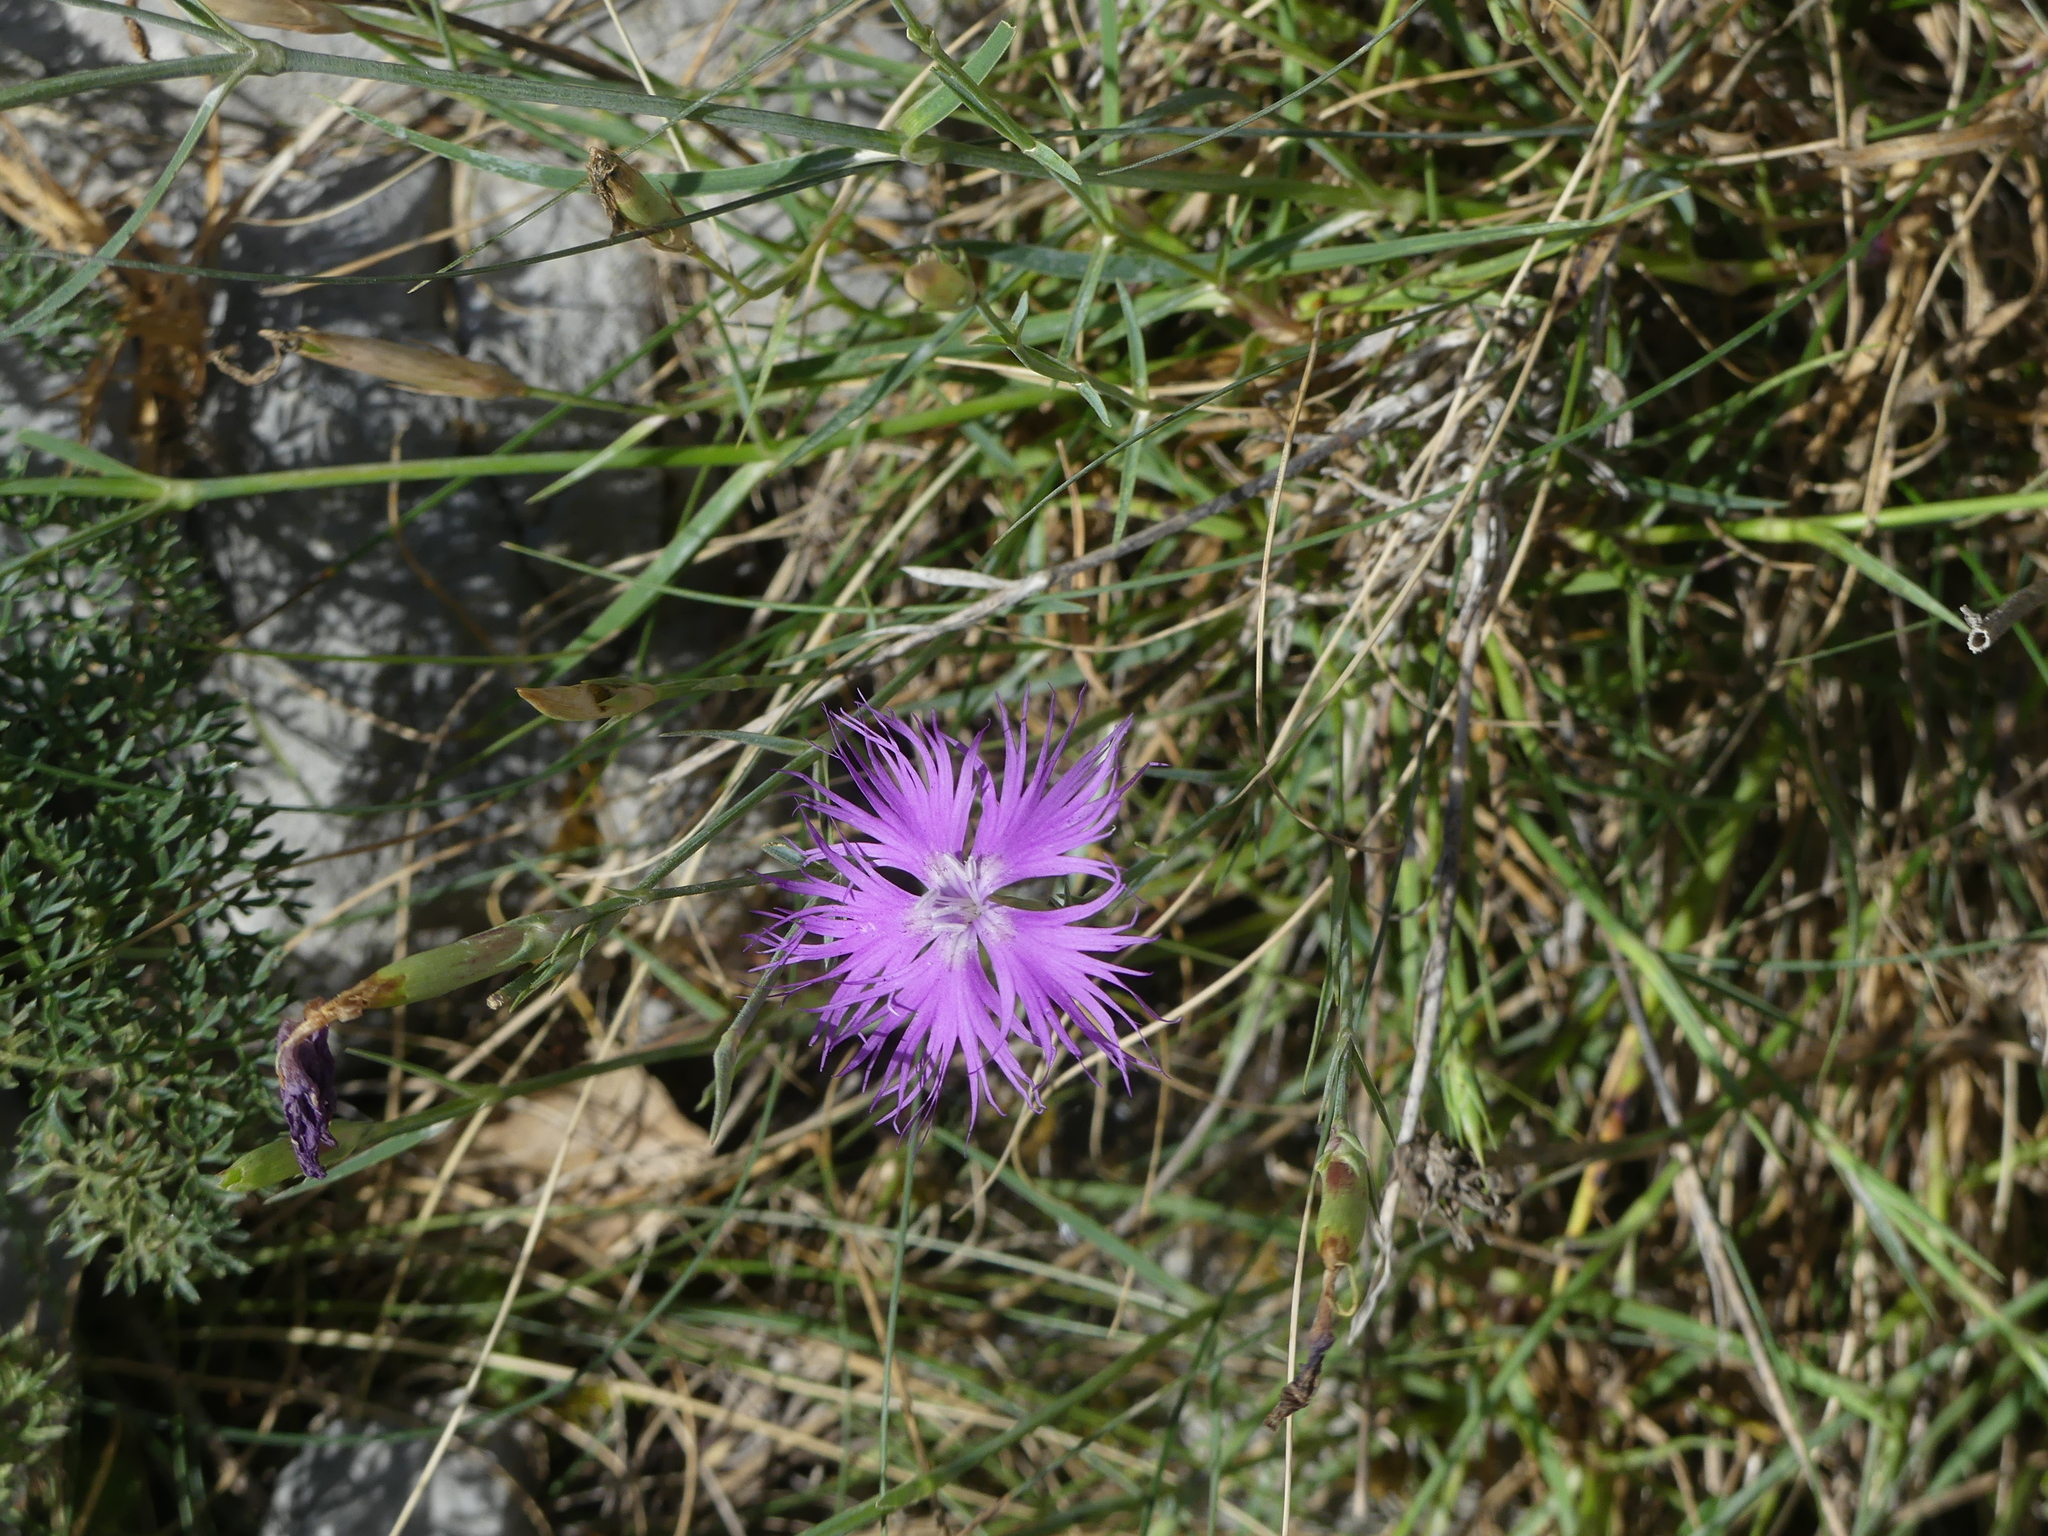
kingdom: Plantae
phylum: Tracheophyta
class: Magnoliopsida
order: Caryophyllales
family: Caryophyllaceae
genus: Dianthus
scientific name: Dianthus hyssopifolius
